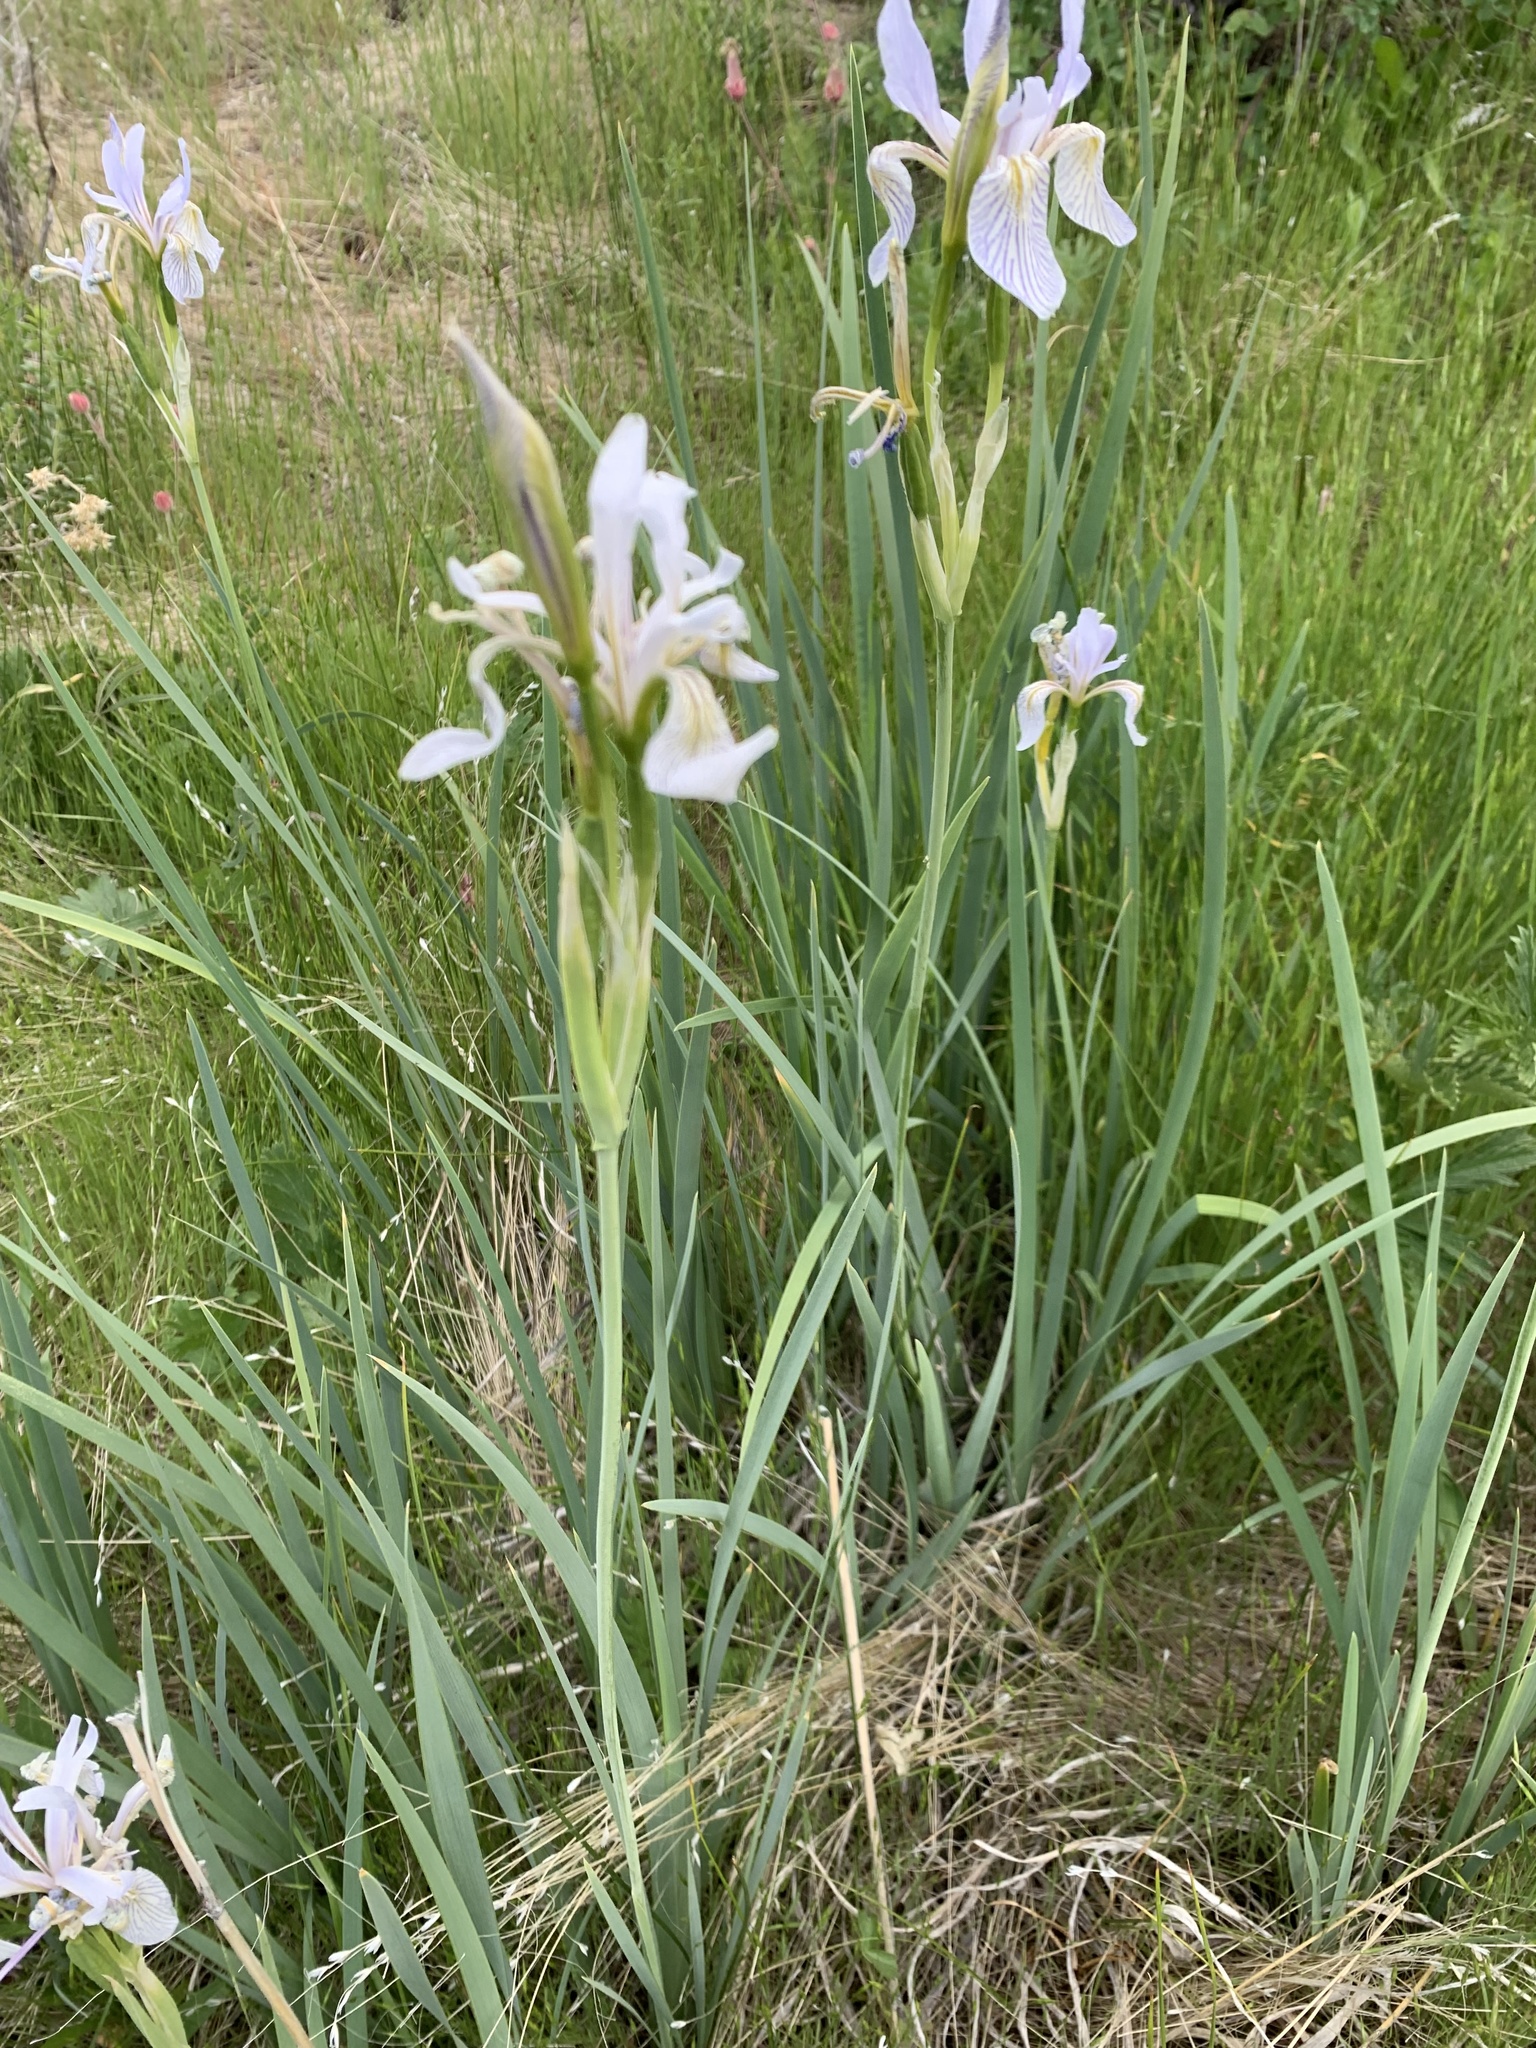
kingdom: Plantae
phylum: Tracheophyta
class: Liliopsida
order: Asparagales
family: Iridaceae
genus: Iris
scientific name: Iris missouriensis
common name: Rocky mountain iris
